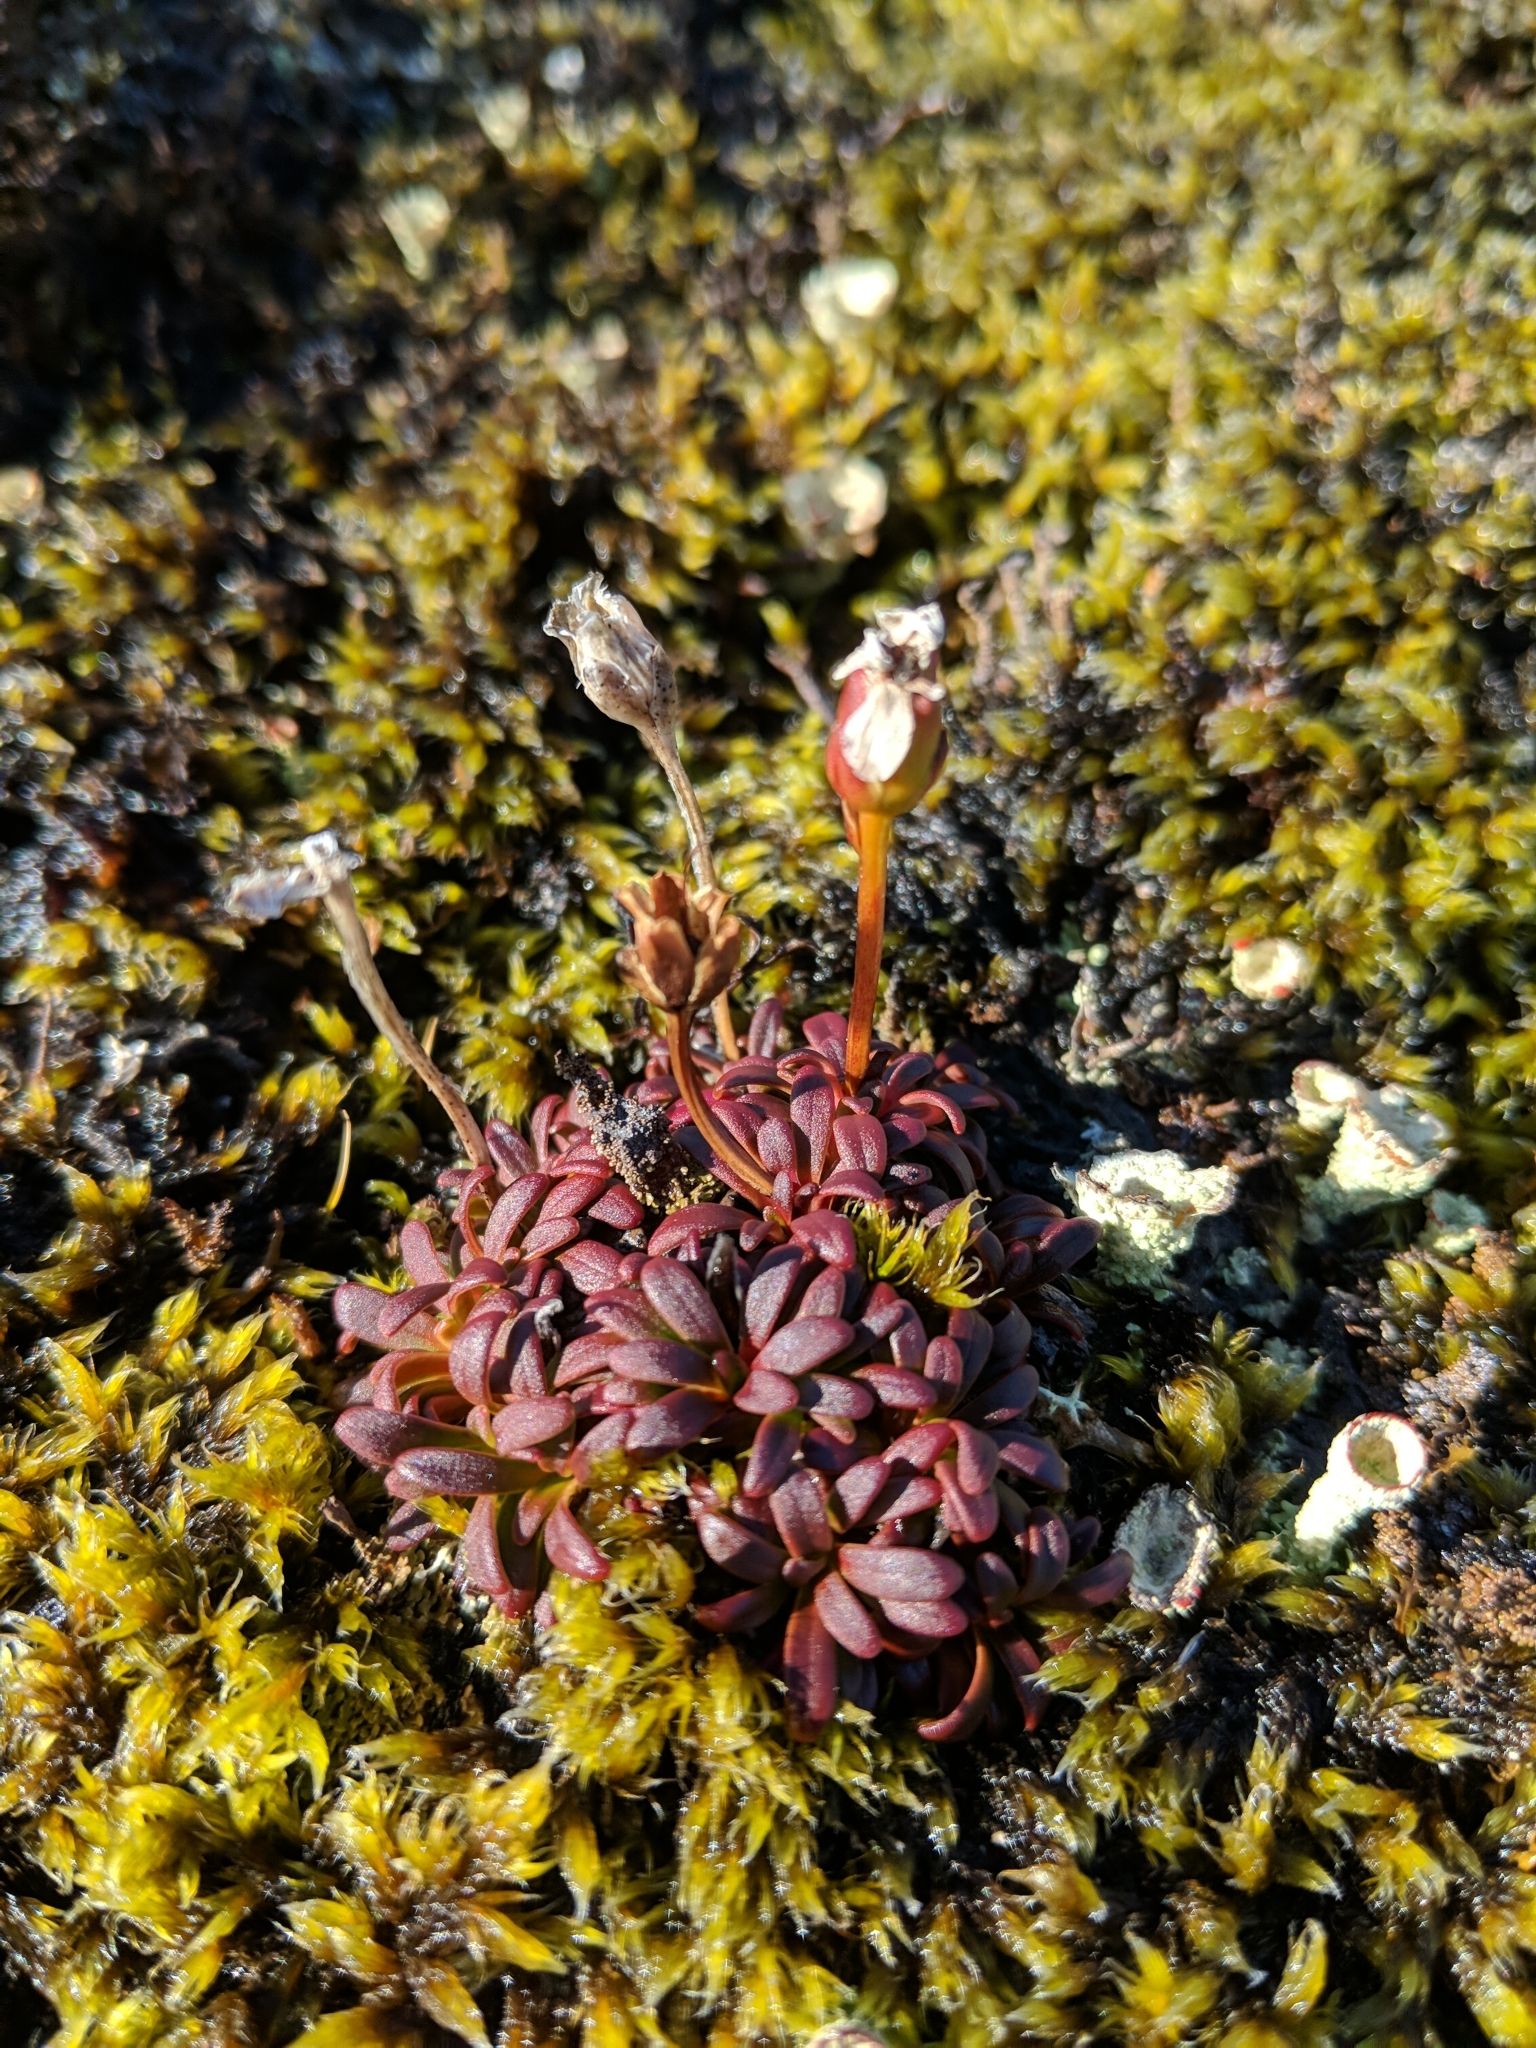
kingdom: Plantae
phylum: Tracheophyta
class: Magnoliopsida
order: Ericales
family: Diapensiaceae
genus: Diapensia
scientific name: Diapensia lapponica
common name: Diapensia
